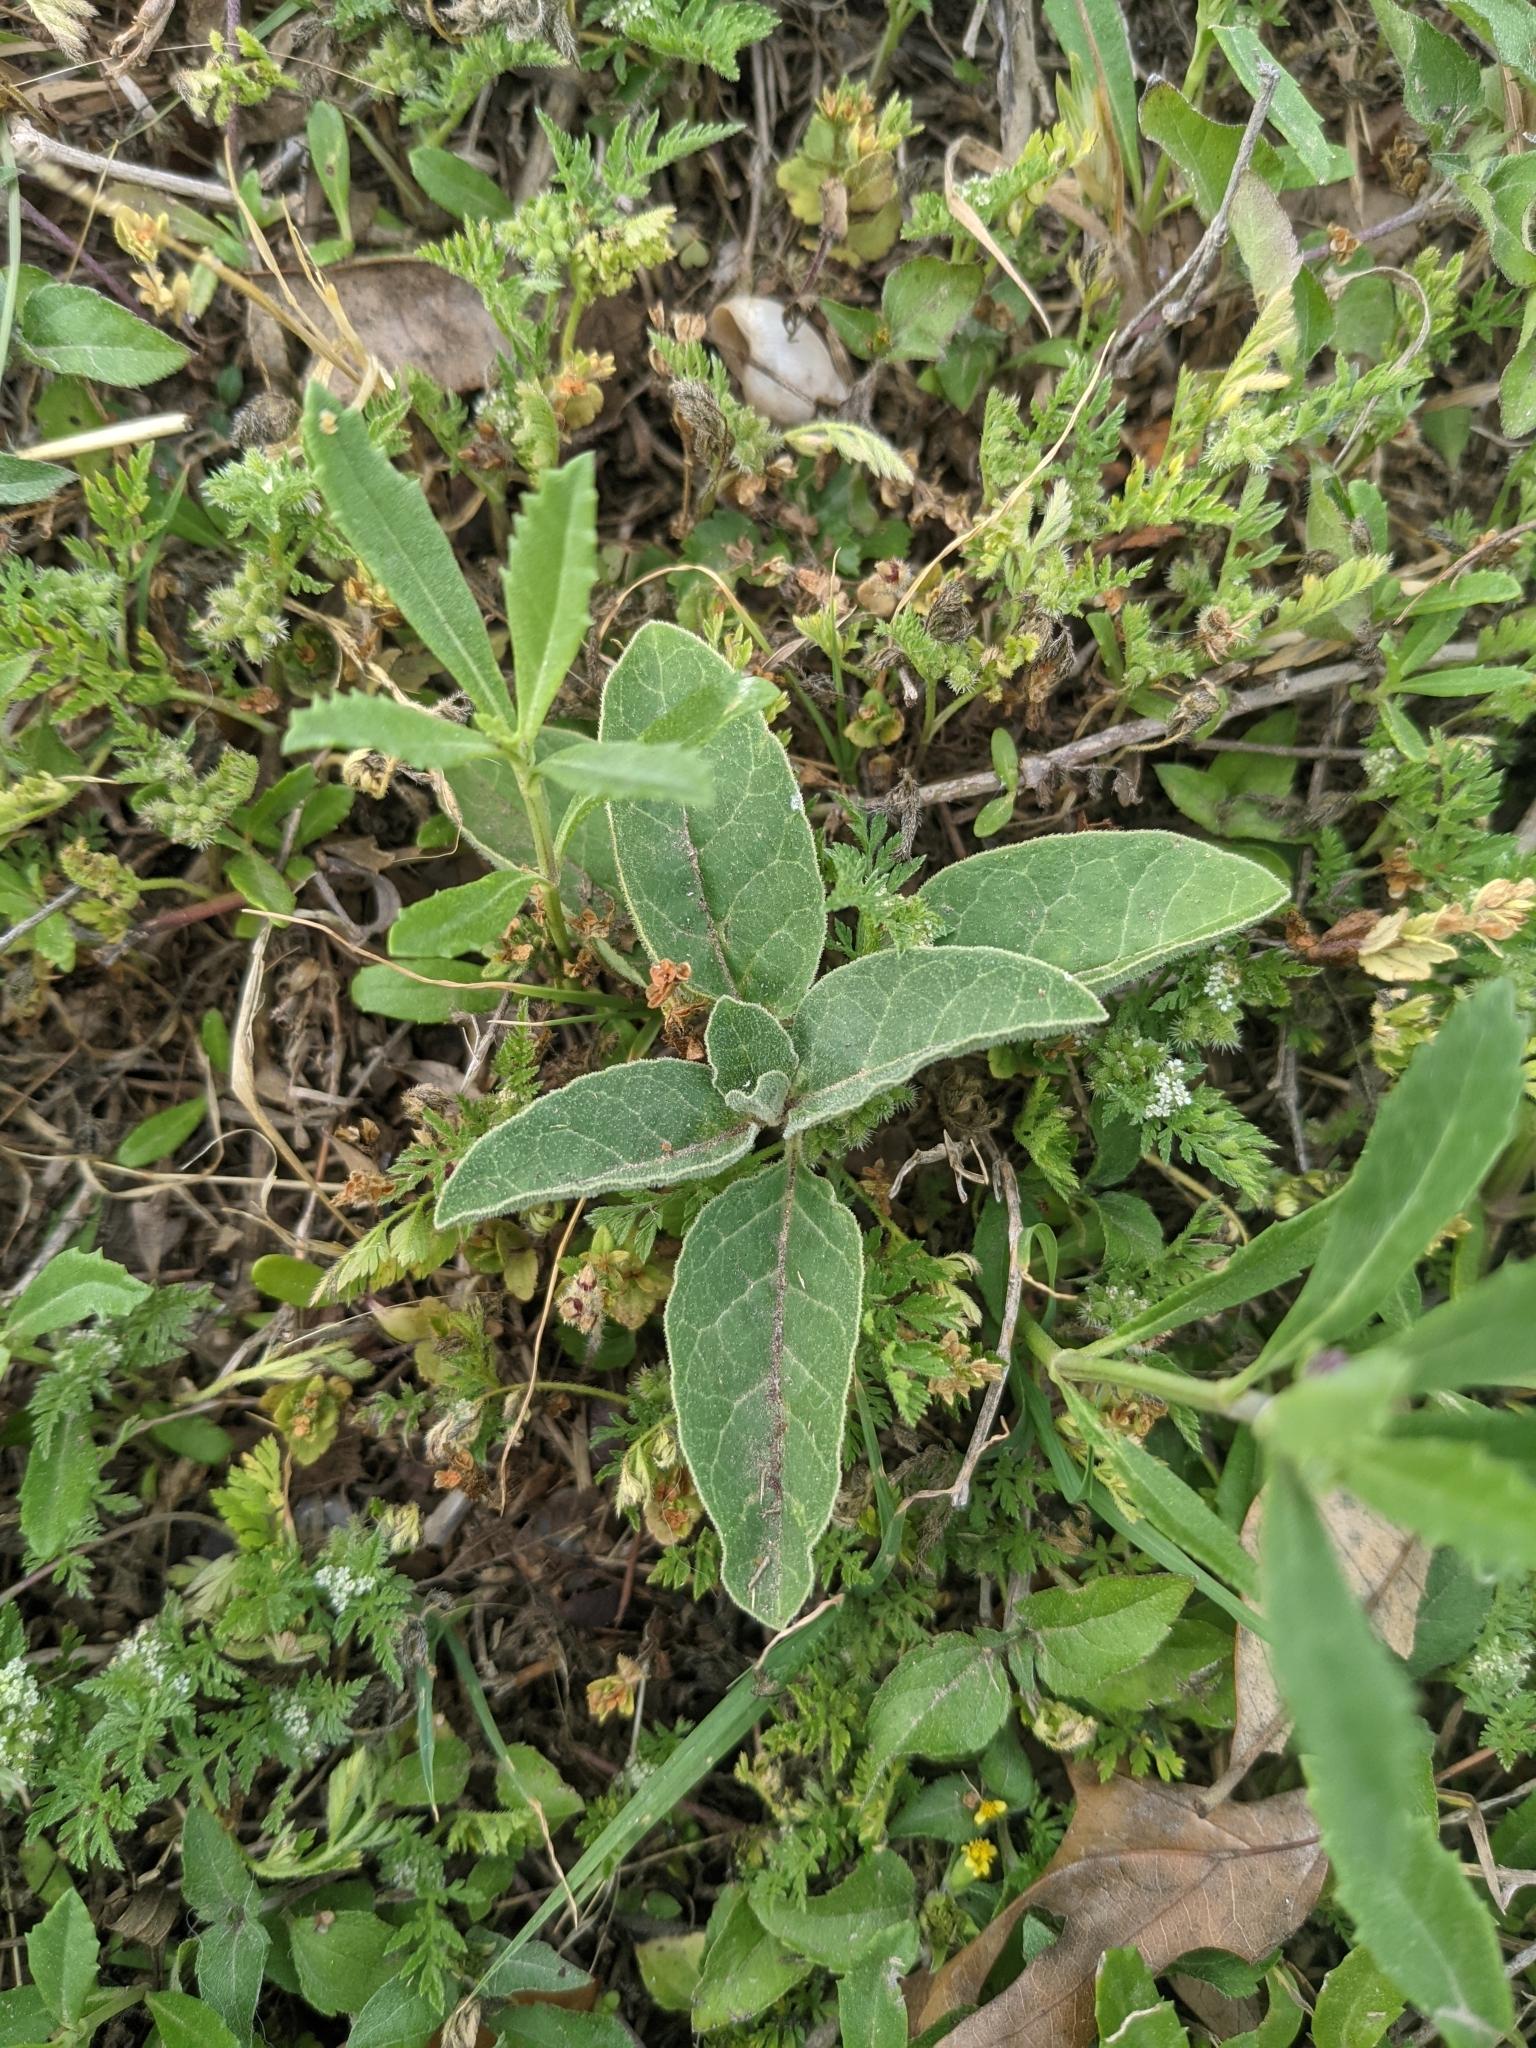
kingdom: Plantae
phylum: Tracheophyta
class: Magnoliopsida
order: Gentianales
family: Apocynaceae
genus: Asclepias
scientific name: Asclepias oenotheroides
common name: Zizotes milkweed
